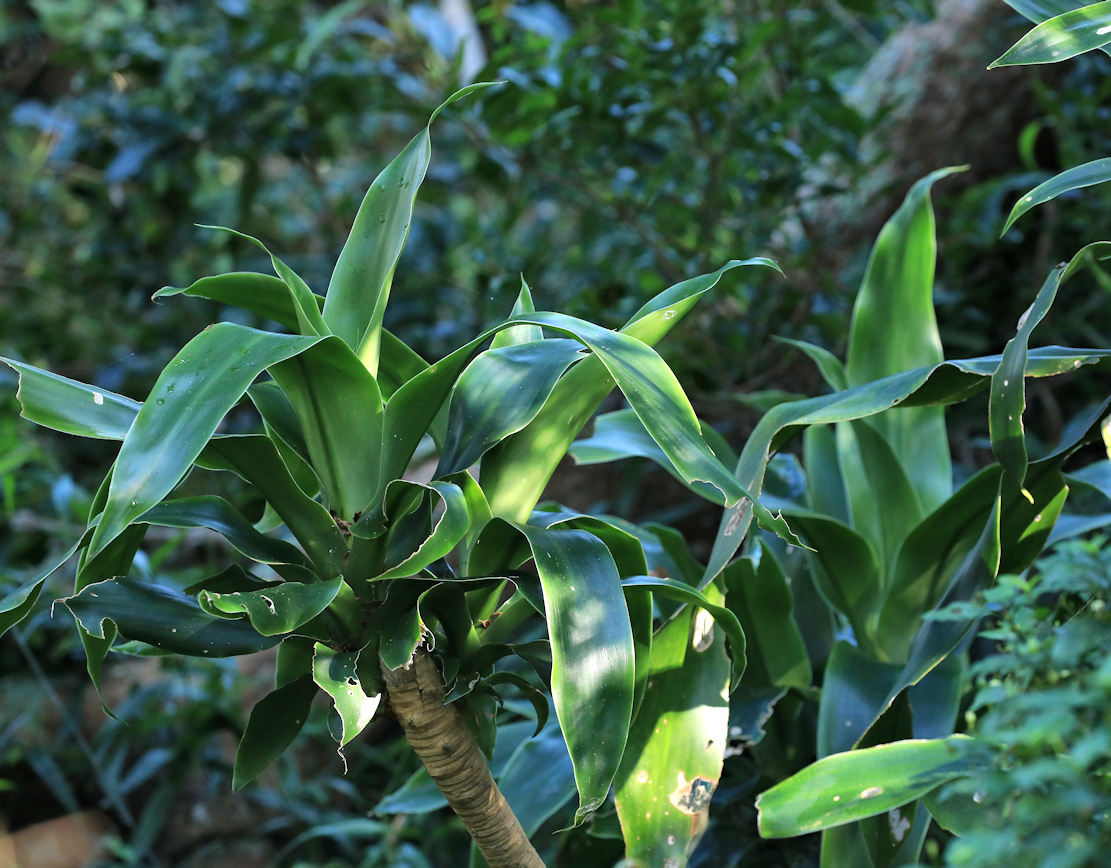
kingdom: Plantae
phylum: Tracheophyta
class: Liliopsida
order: Asparagales
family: Asparagaceae
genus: Dracaena
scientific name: Dracaena aletriformis
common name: Large-leaved dragon tree
